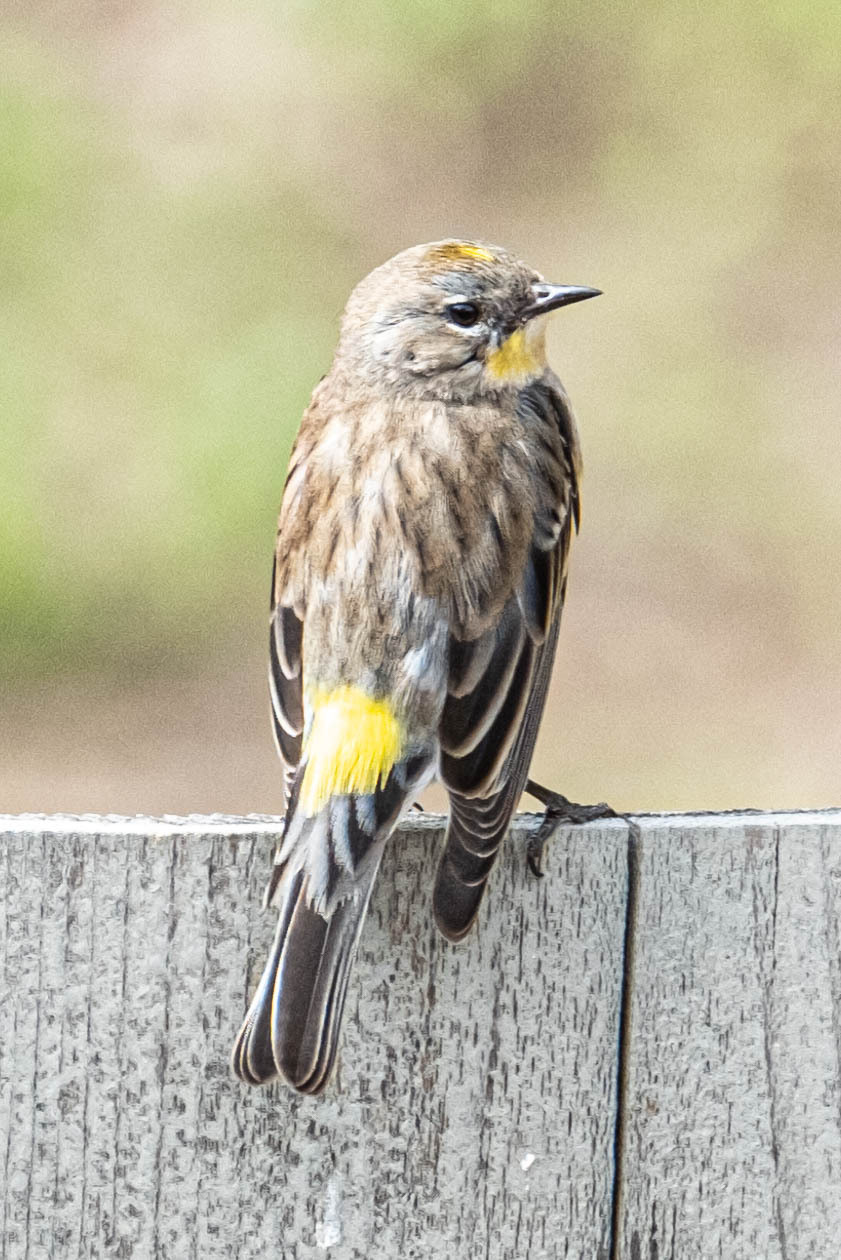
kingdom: Animalia
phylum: Chordata
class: Aves
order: Passeriformes
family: Parulidae
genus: Setophaga
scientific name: Setophaga coronata
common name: Myrtle warbler
